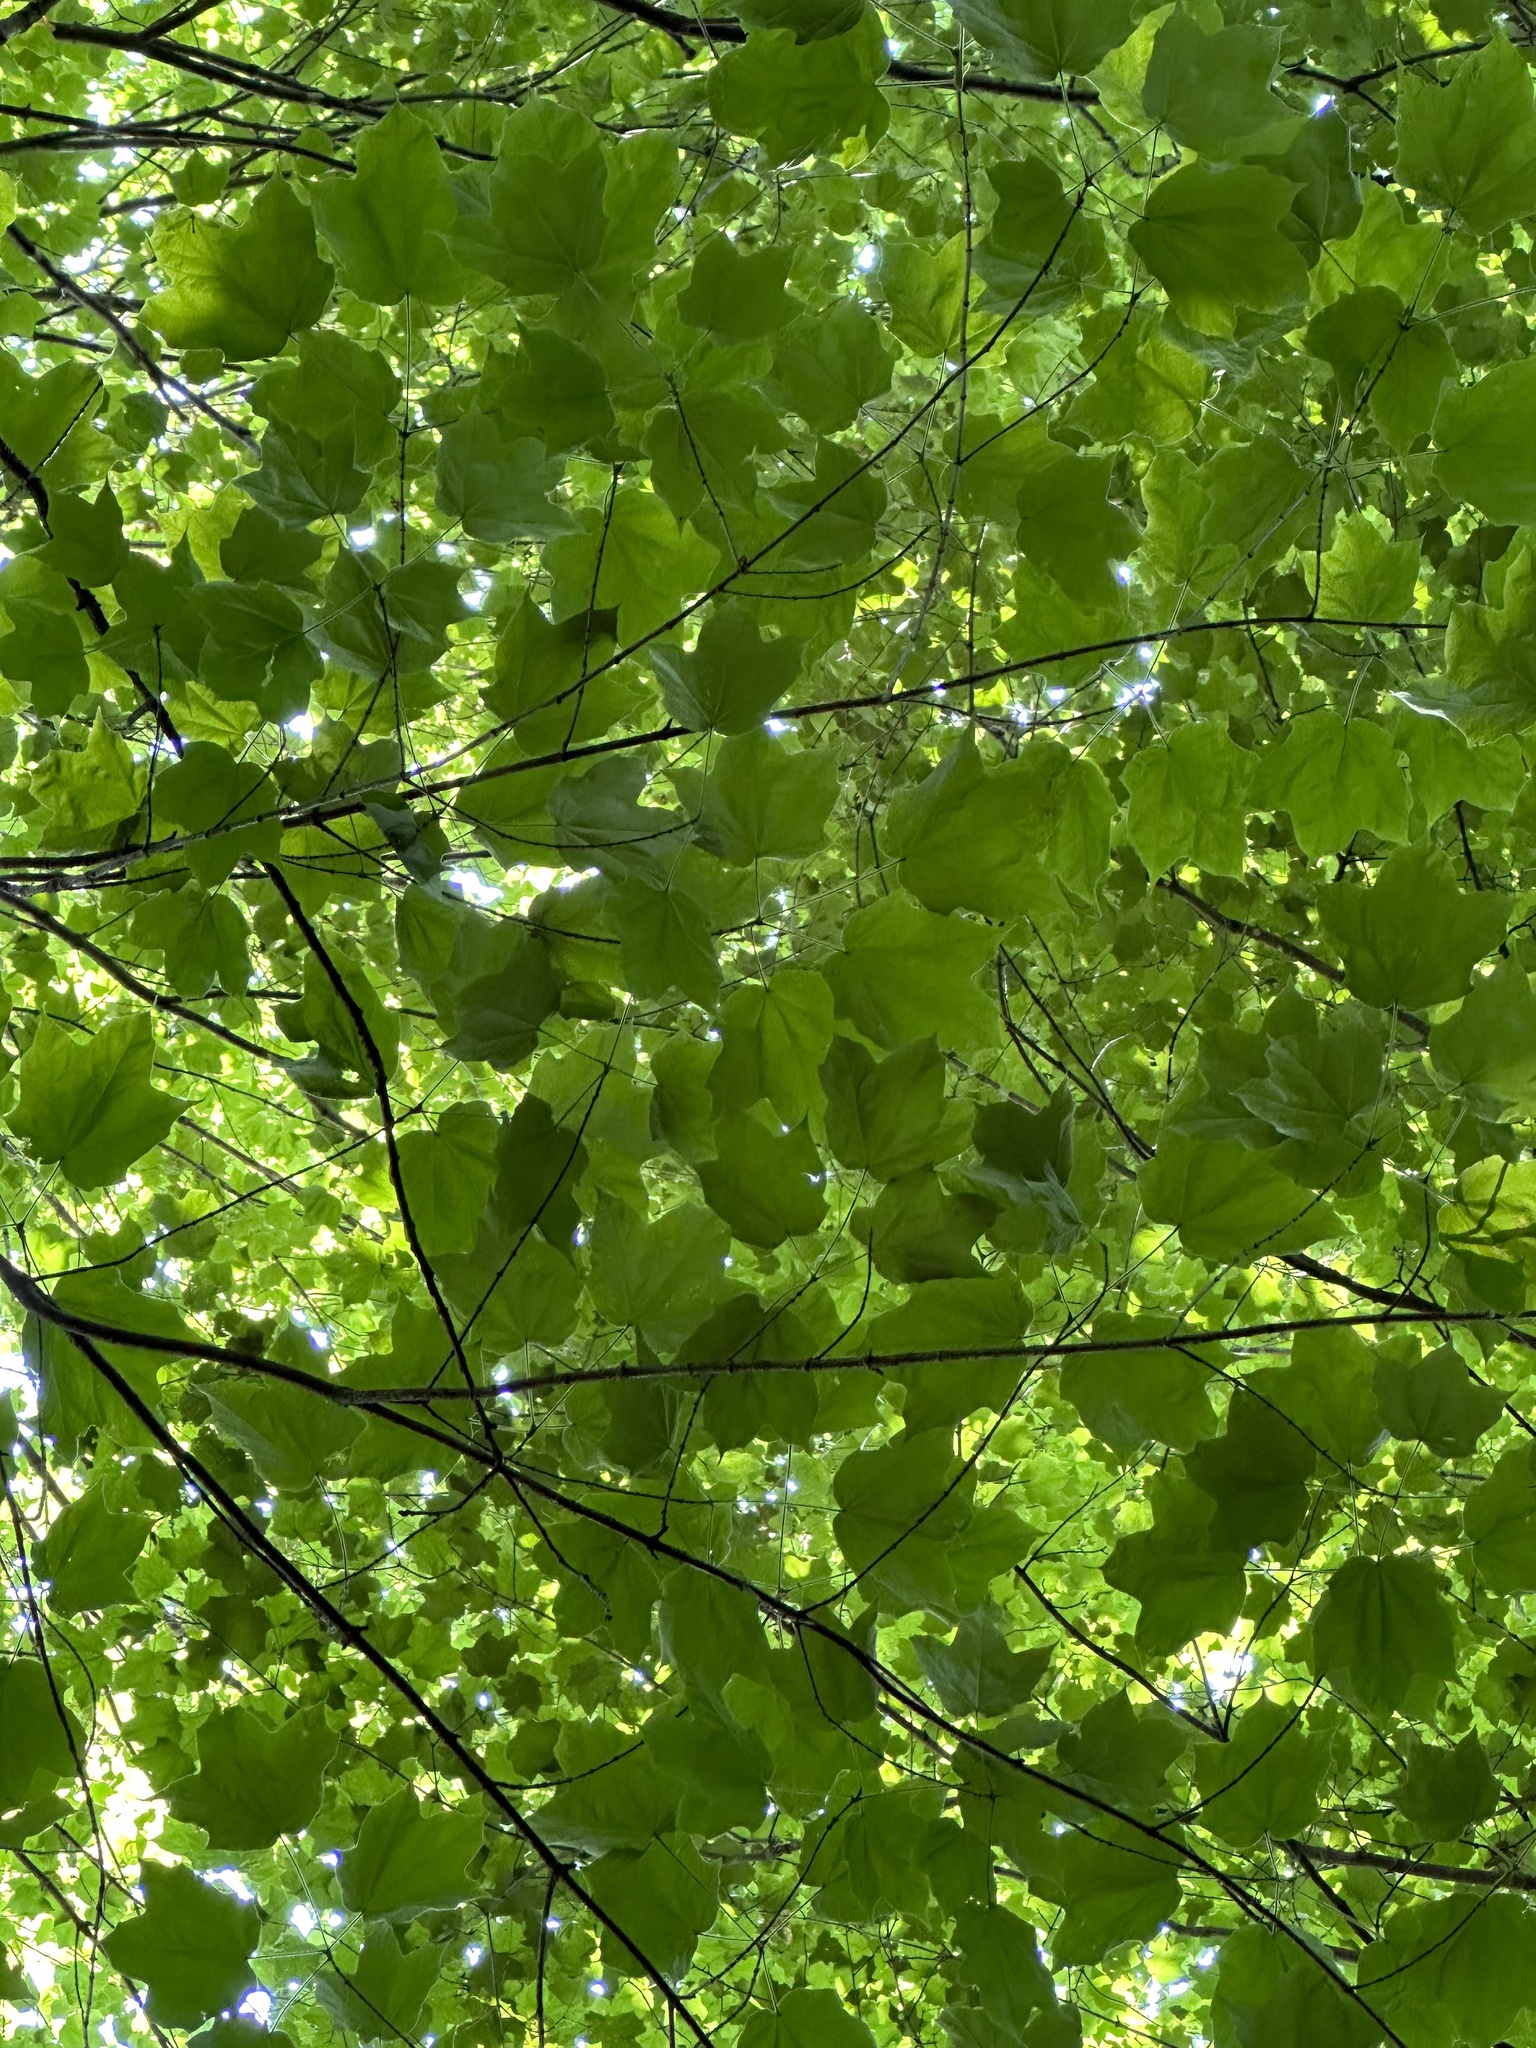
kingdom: Plantae
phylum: Tracheophyta
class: Magnoliopsida
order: Sapindales
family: Sapindaceae
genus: Acer
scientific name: Acer nigrum
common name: Black maple
